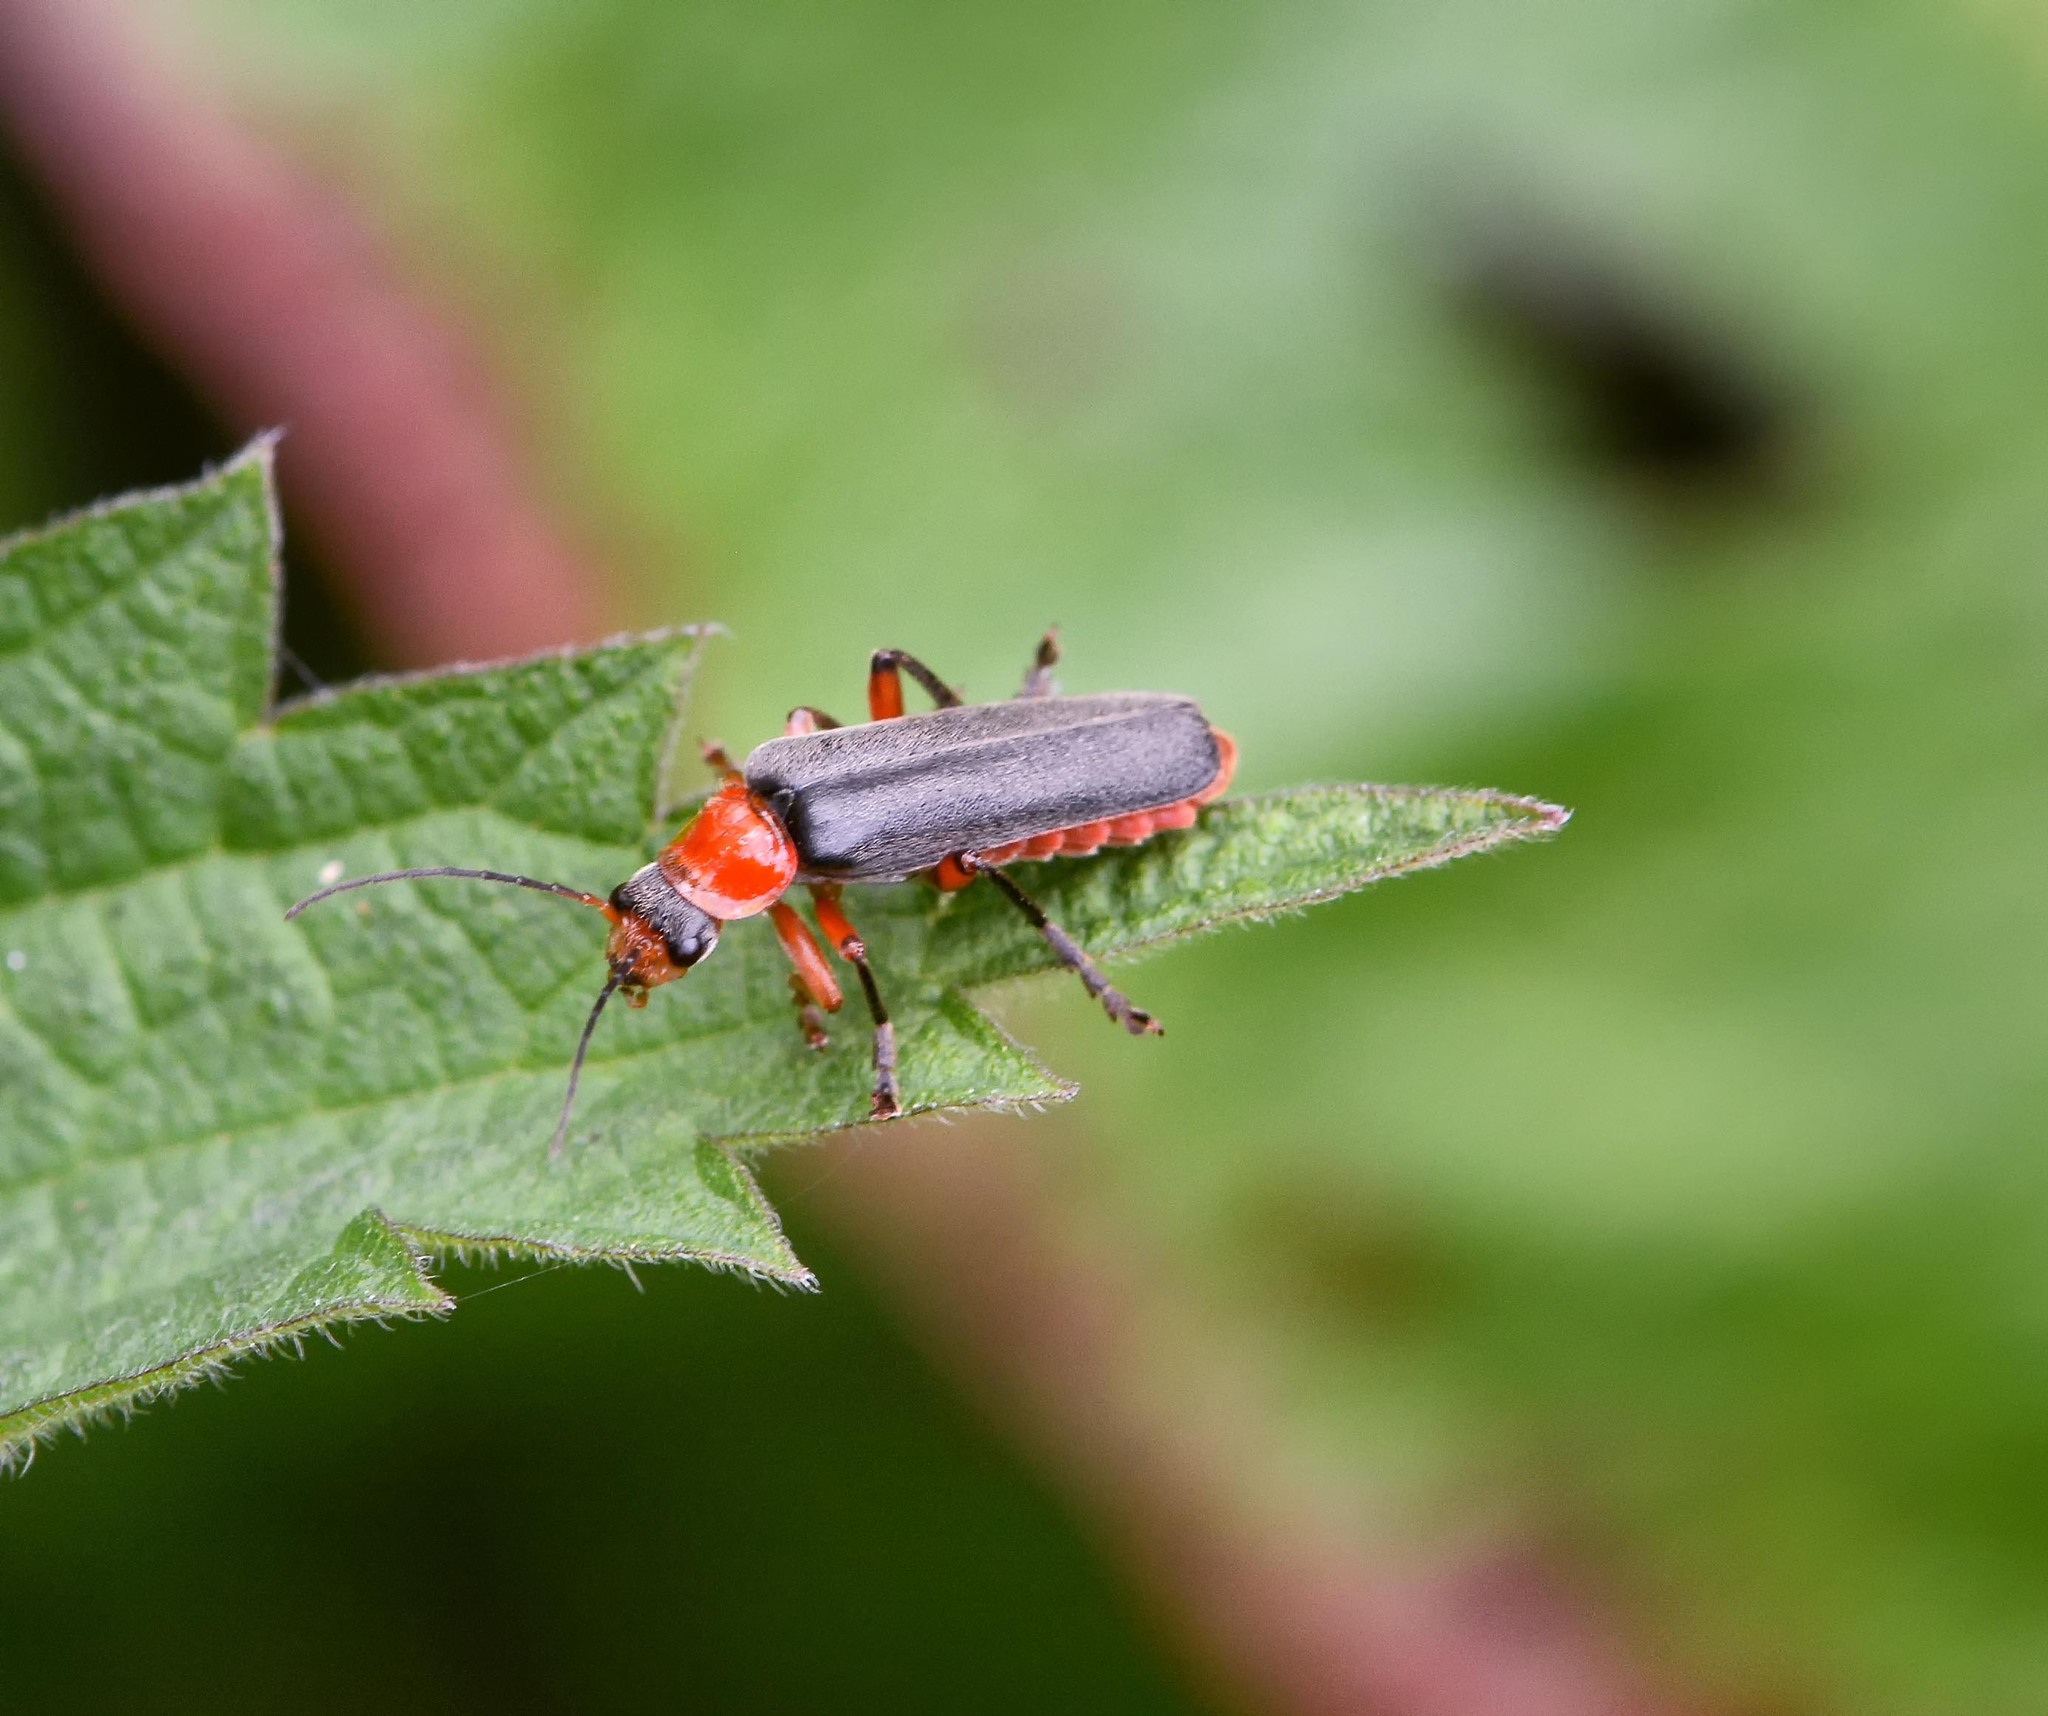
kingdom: Animalia
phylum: Arthropoda
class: Insecta
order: Coleoptera
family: Cantharidae
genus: Cantharis
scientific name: Cantharis pellucida
